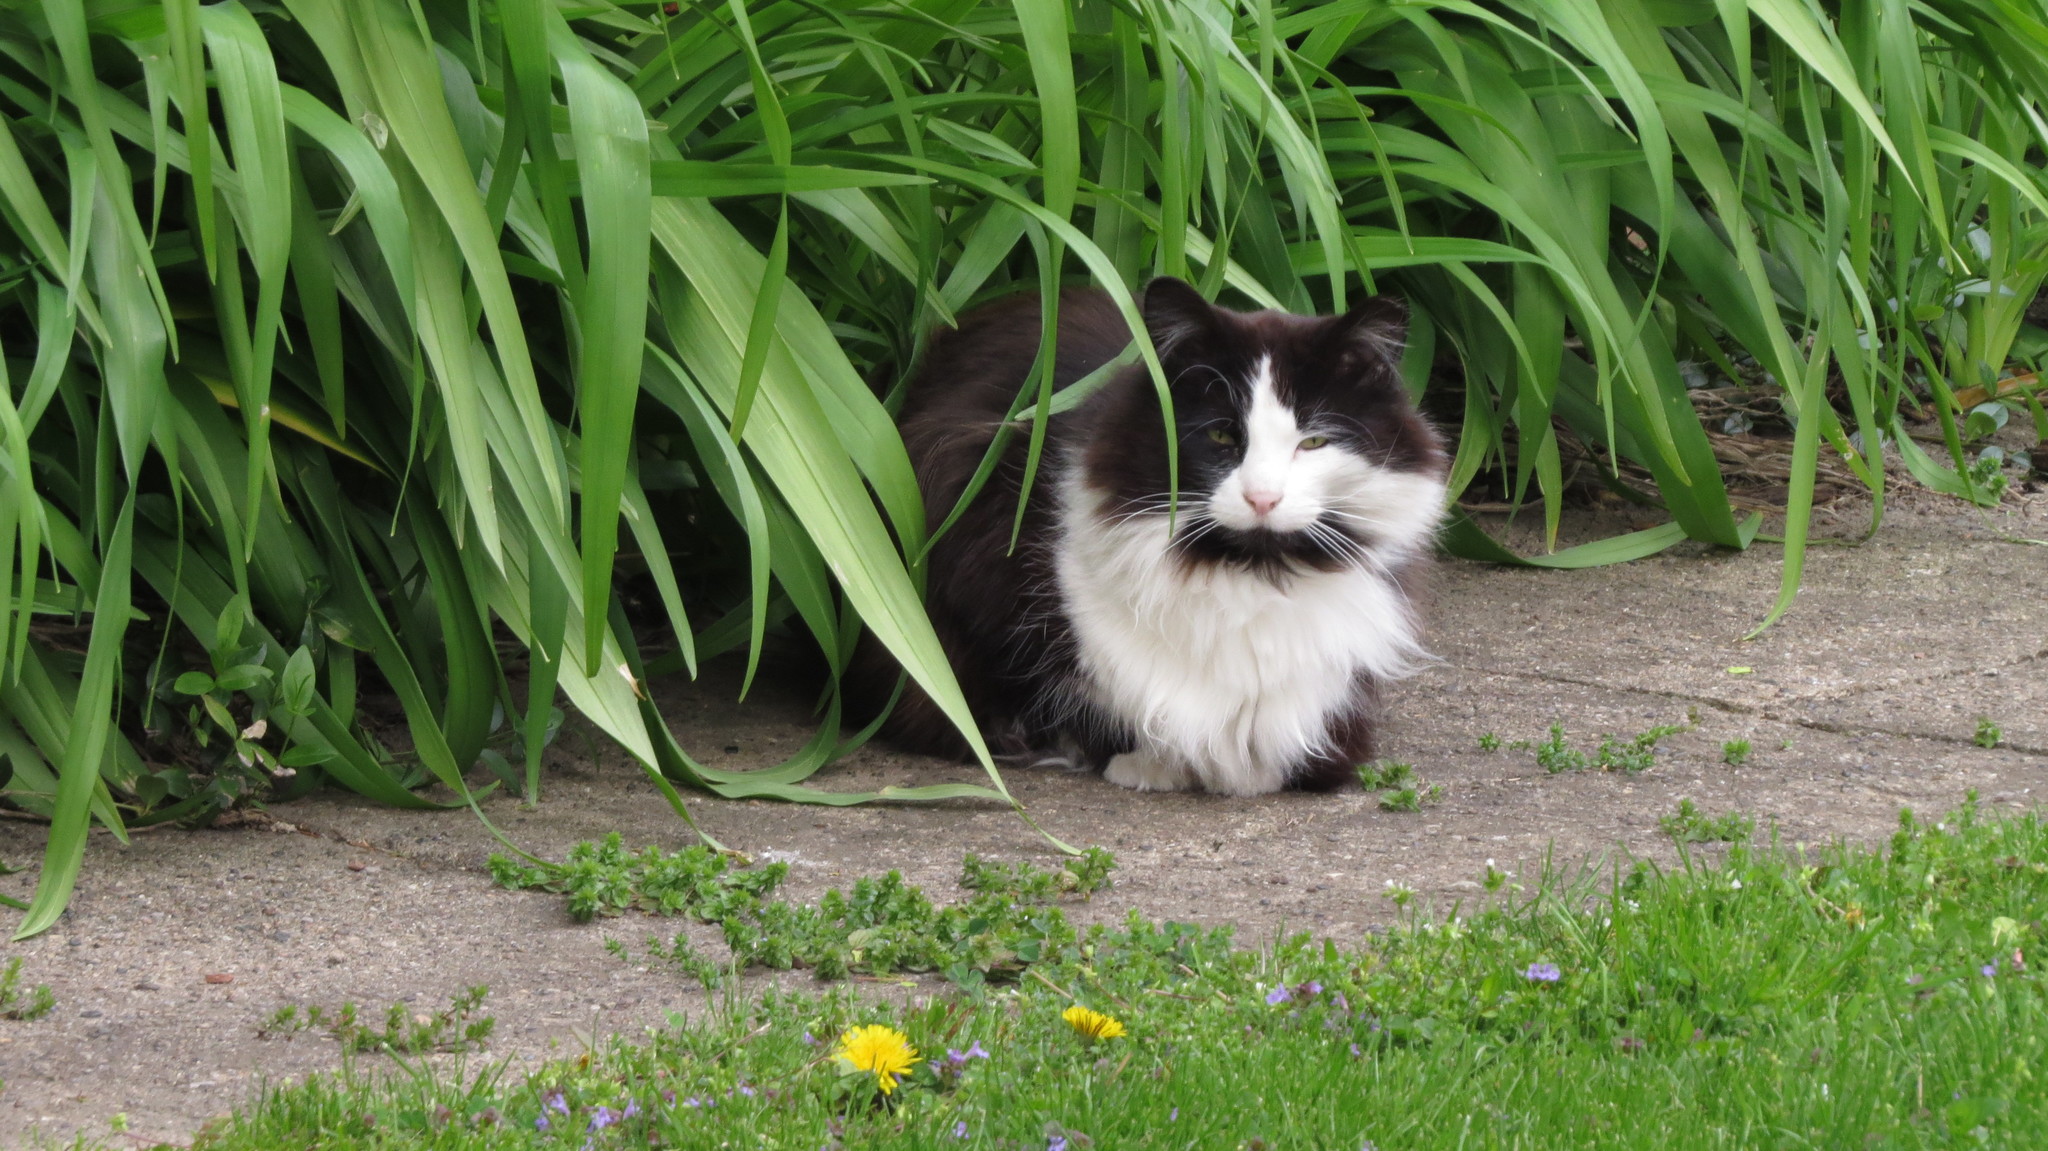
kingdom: Animalia
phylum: Chordata
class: Mammalia
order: Carnivora
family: Felidae
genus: Felis
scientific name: Felis catus
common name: Domestic cat
